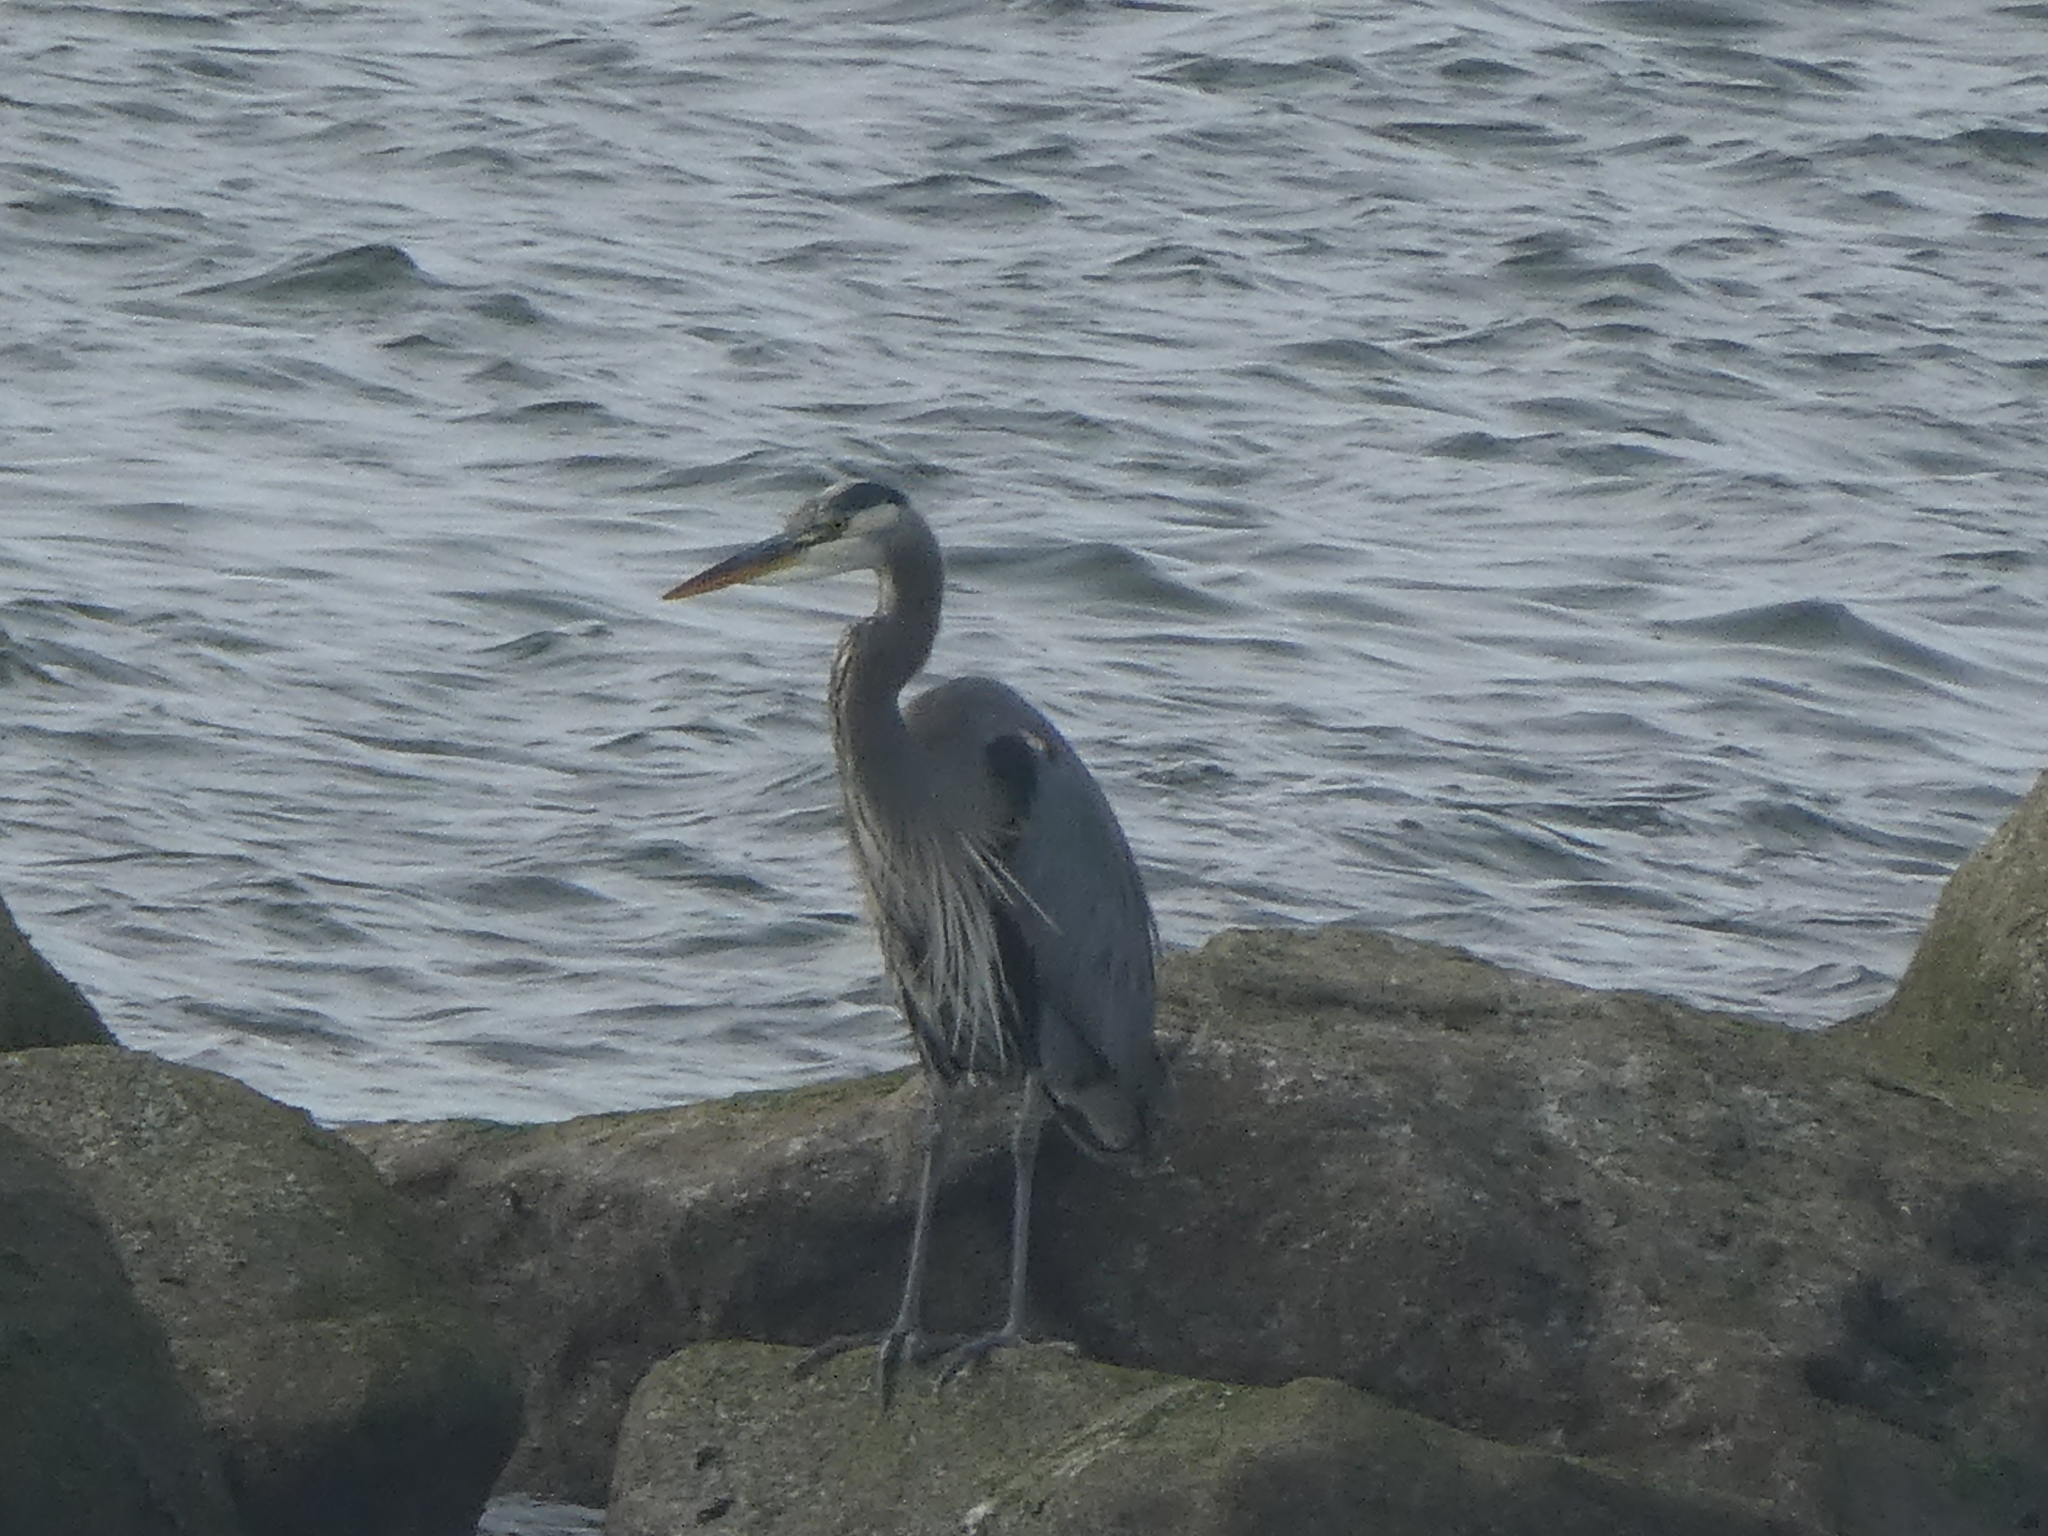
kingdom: Animalia
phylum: Chordata
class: Aves
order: Pelecaniformes
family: Ardeidae
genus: Ardea
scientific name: Ardea herodias
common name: Great blue heron
